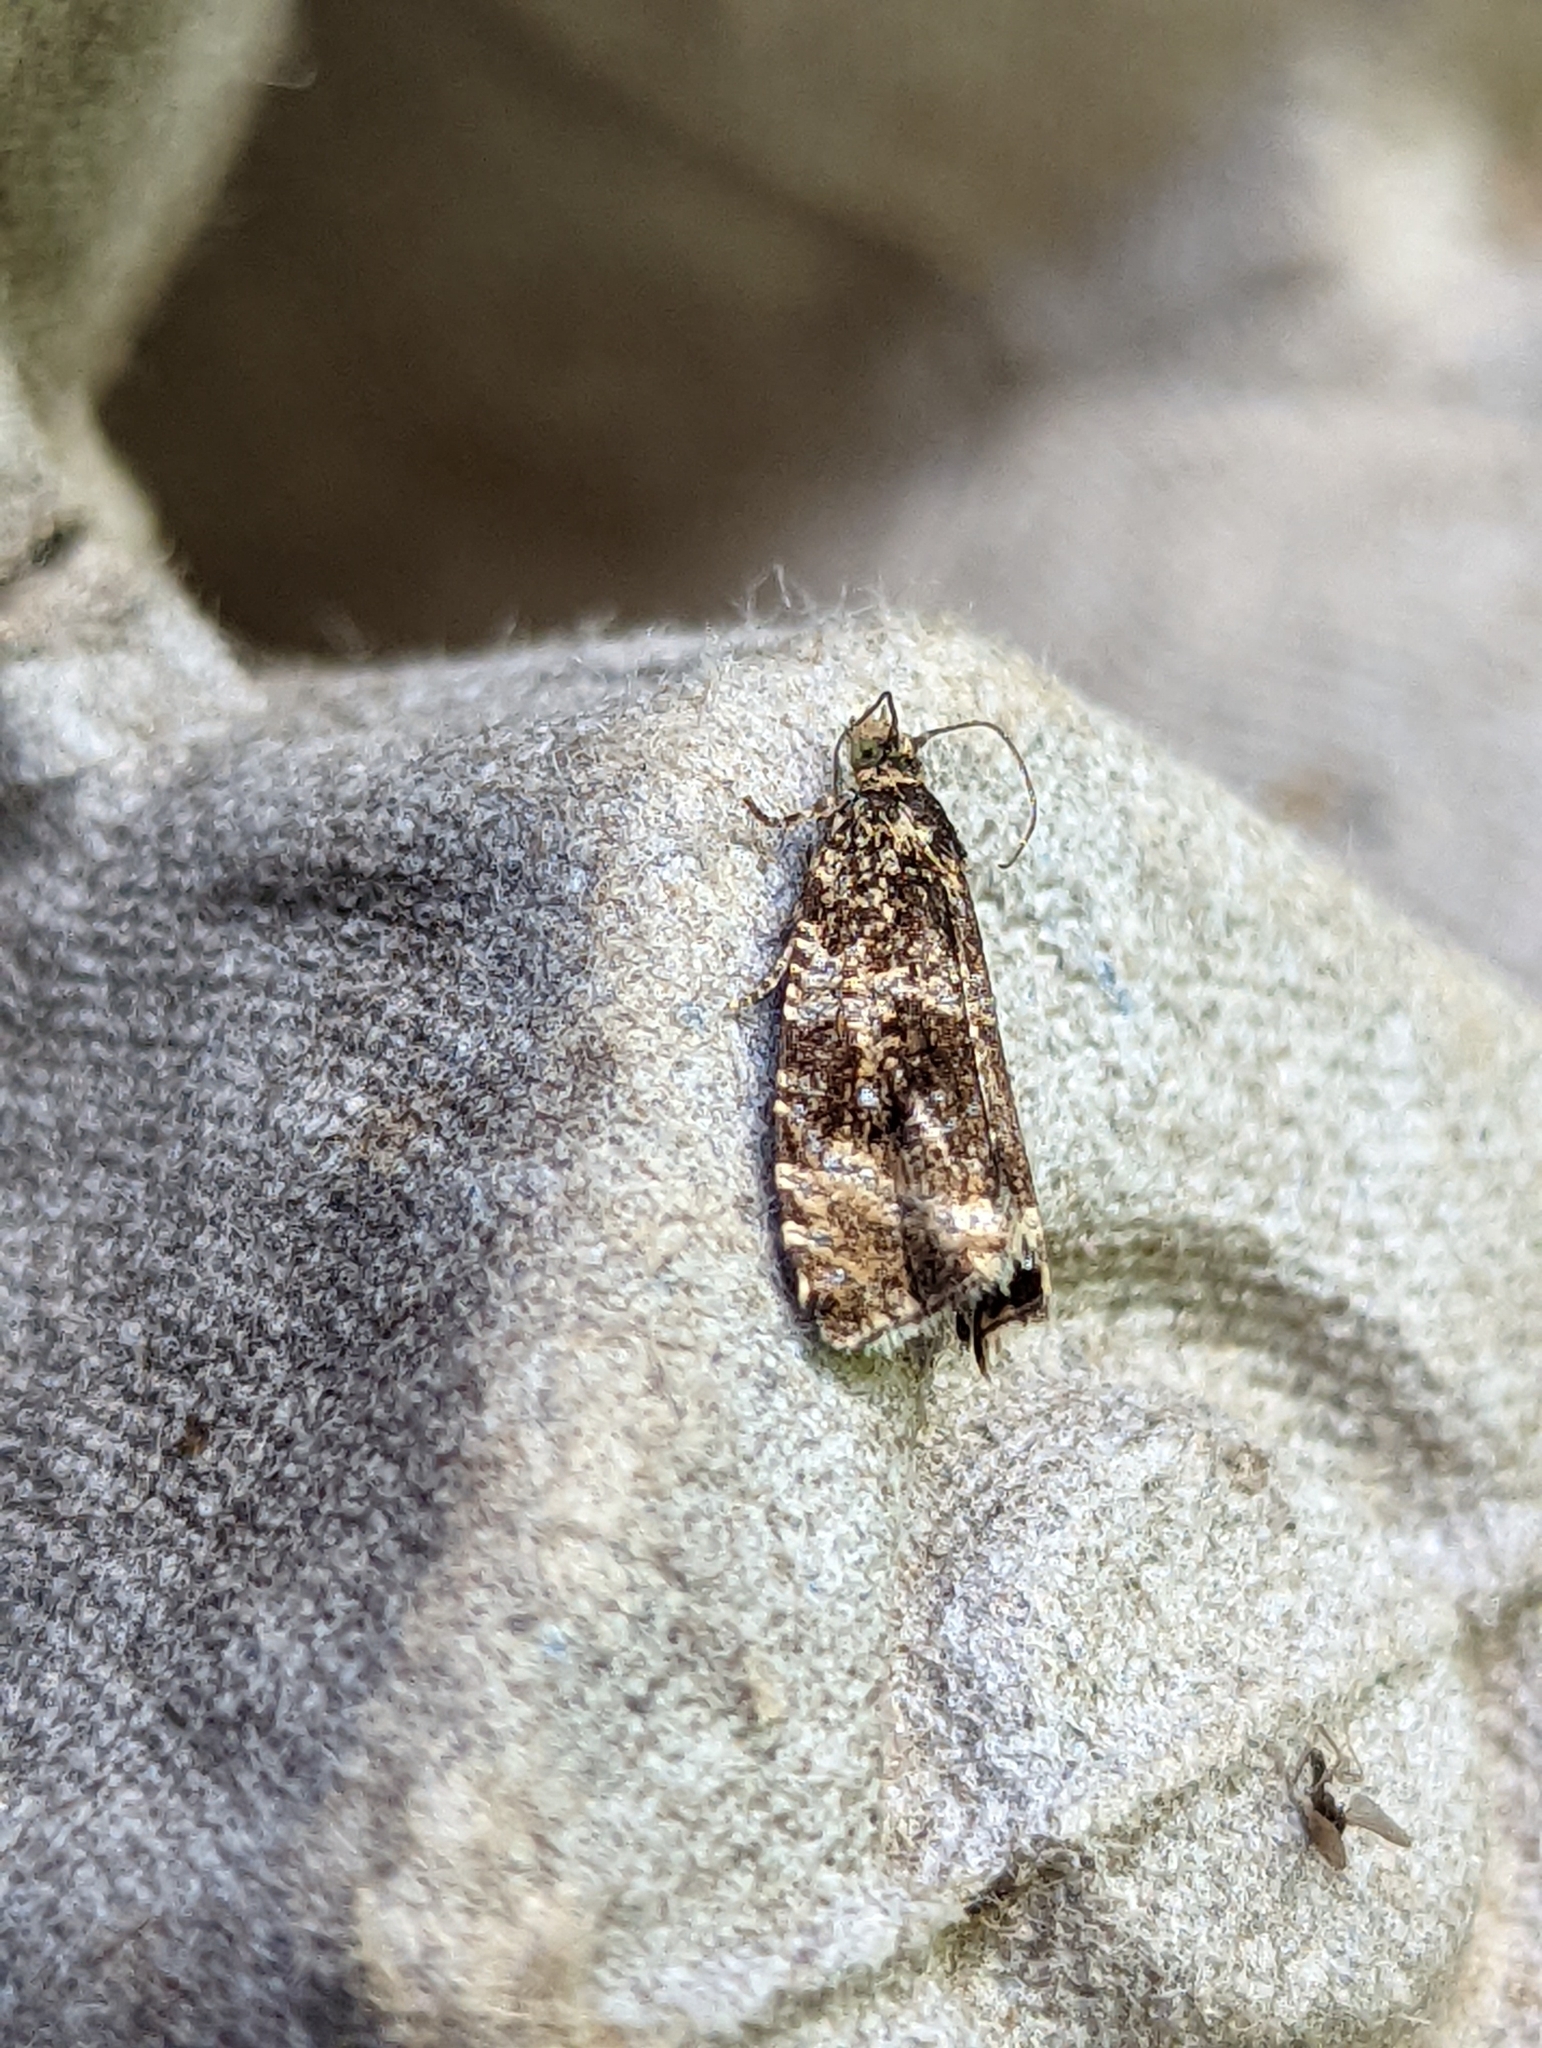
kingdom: Animalia
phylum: Arthropoda
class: Insecta
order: Lepidoptera
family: Tortricidae
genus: Syricoris
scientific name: Syricoris lacunana
